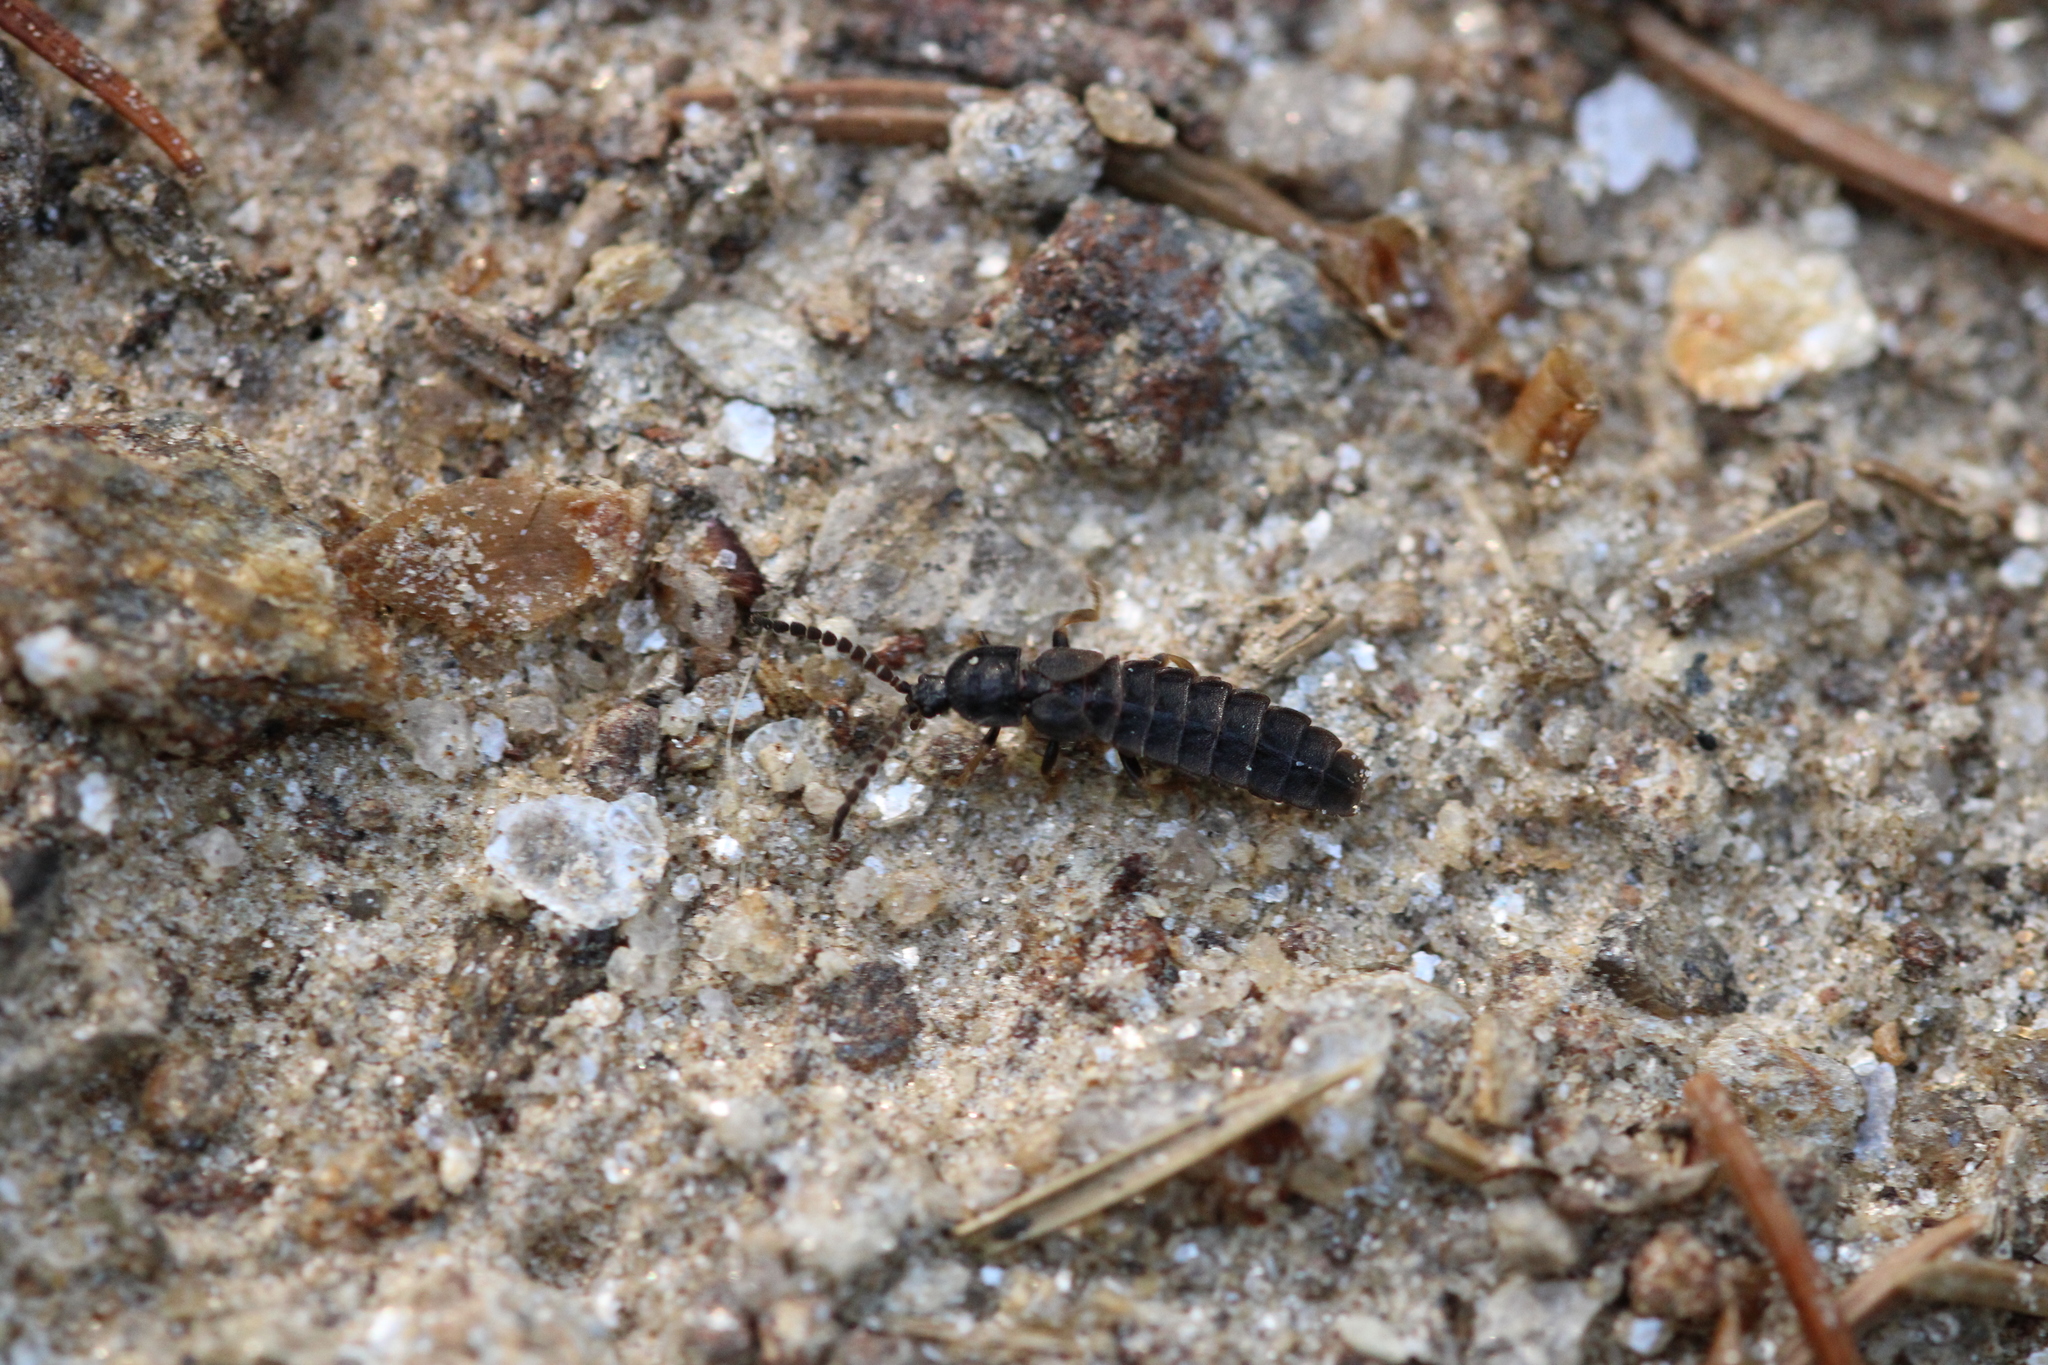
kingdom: Animalia
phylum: Arthropoda
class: Insecta
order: Coleoptera
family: Lampyridae
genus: Phosphaenus
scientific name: Phosphaenus hemipterus
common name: Short-winged firefly
